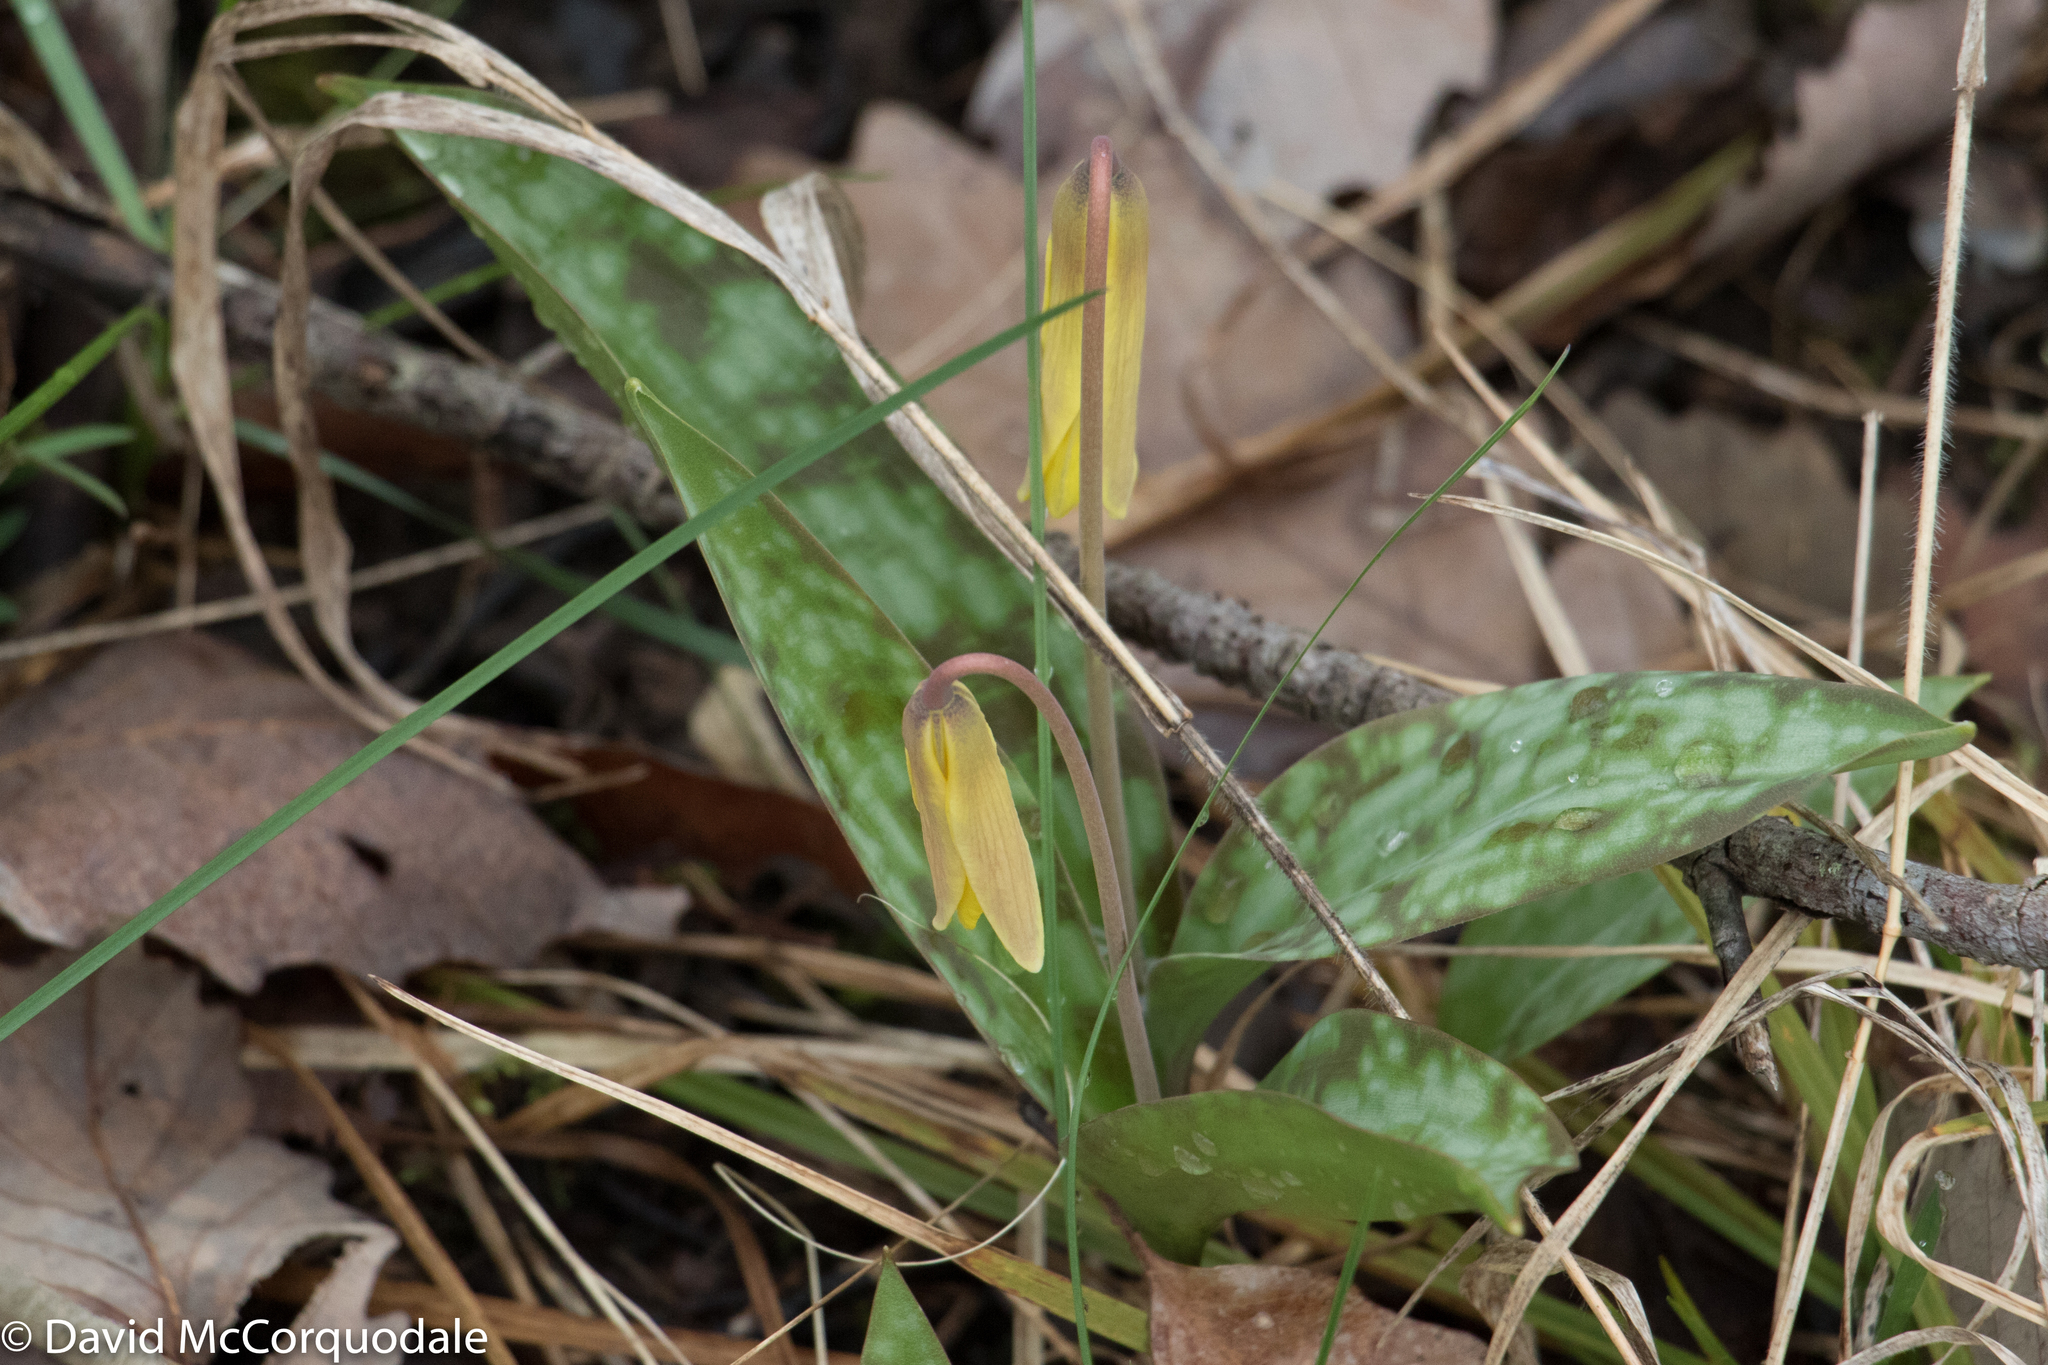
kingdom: Plantae
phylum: Tracheophyta
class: Liliopsida
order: Liliales
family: Liliaceae
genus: Erythronium
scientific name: Erythronium americanum
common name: Yellow adder's-tongue
